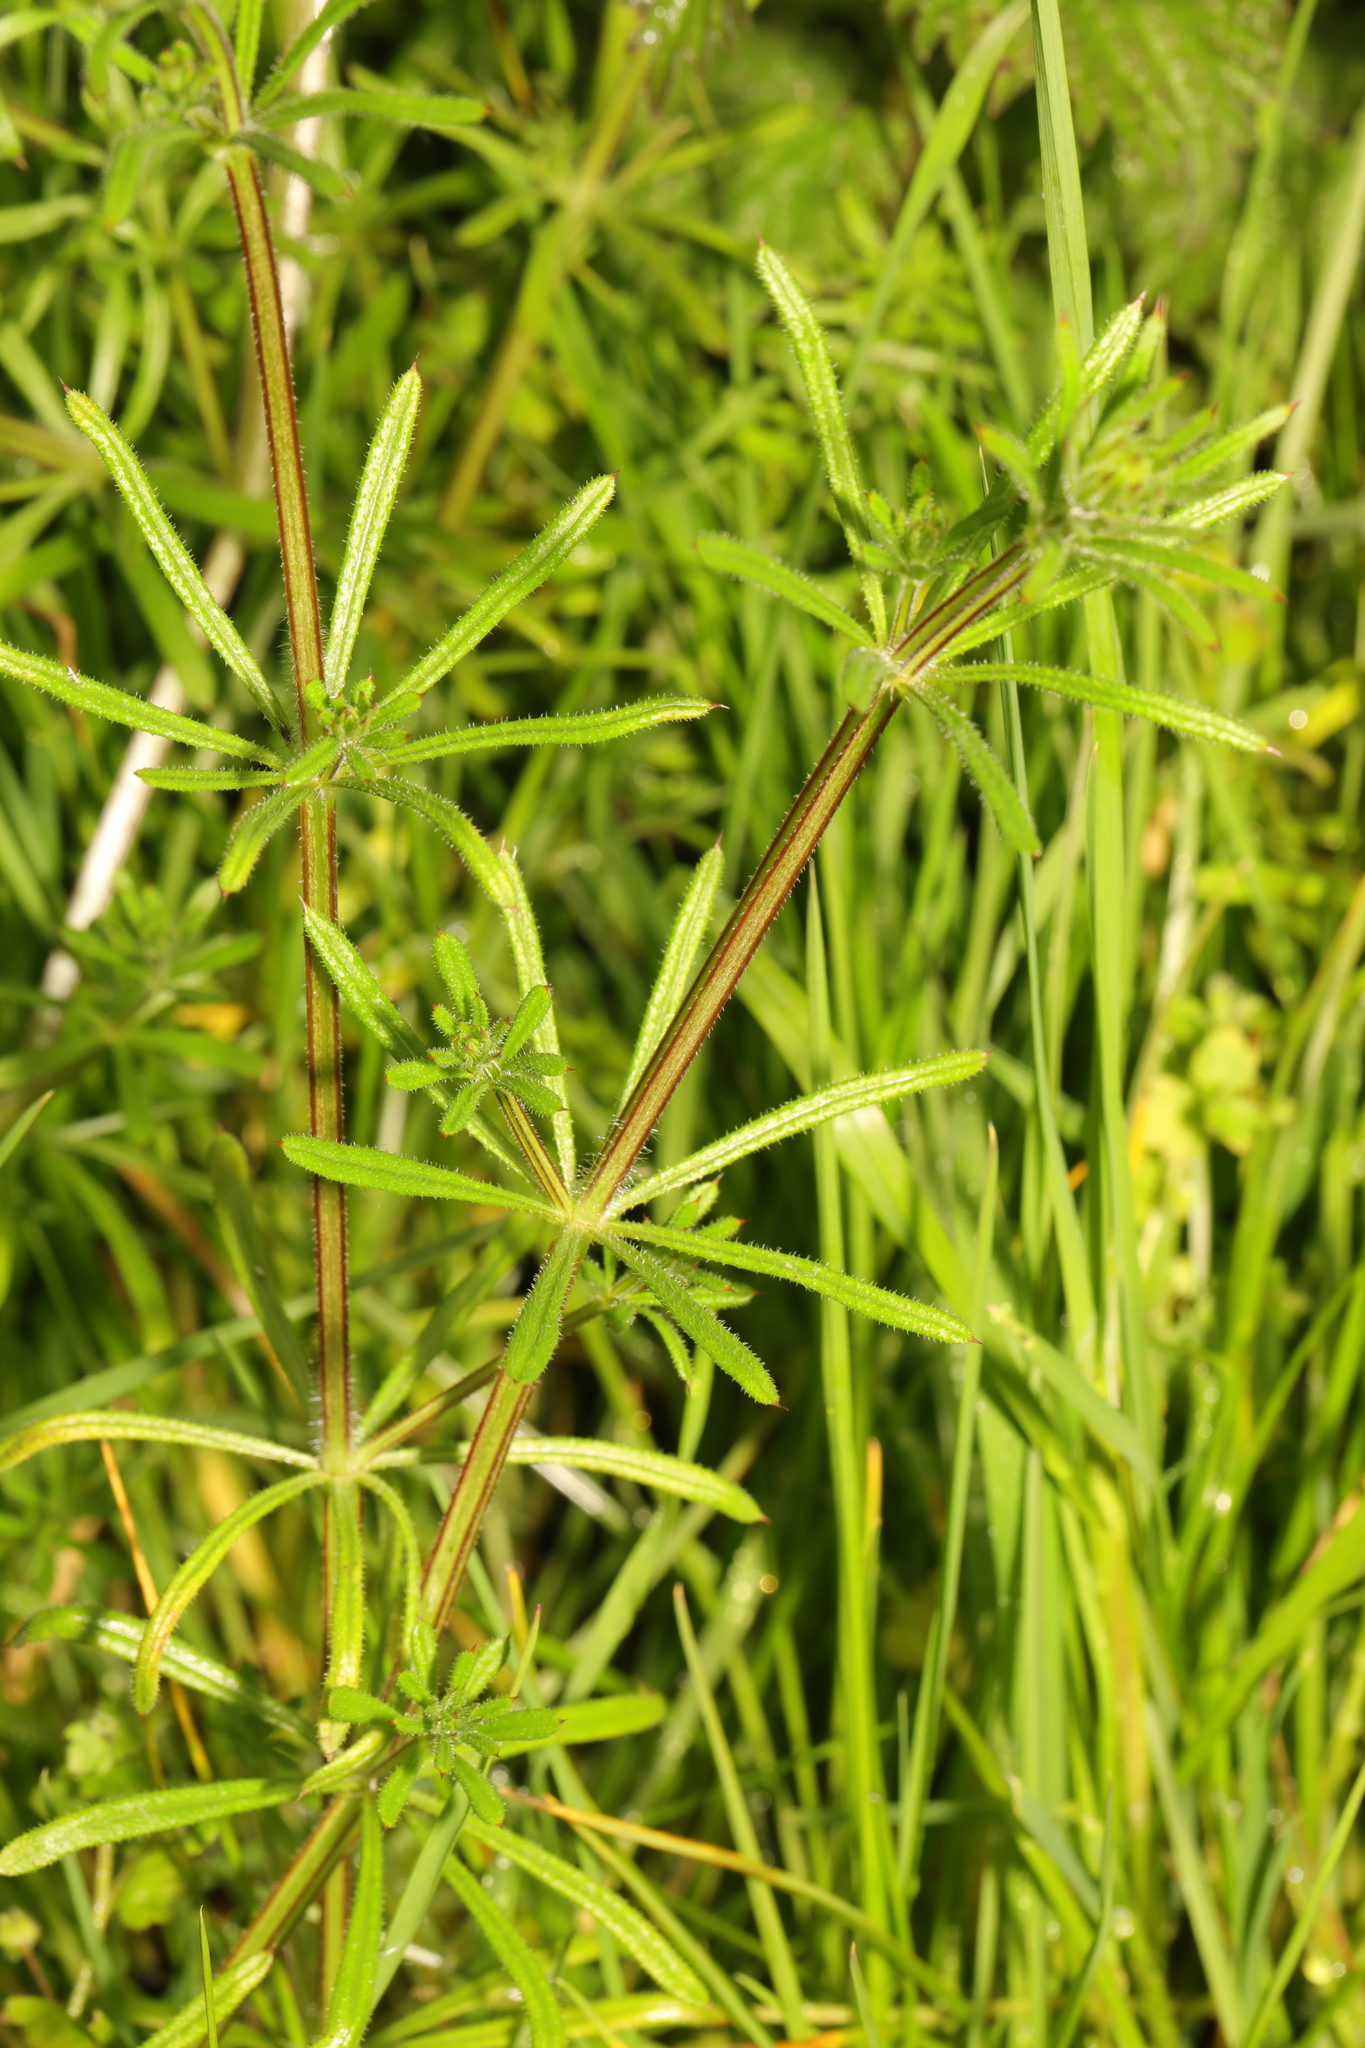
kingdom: Plantae
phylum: Tracheophyta
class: Magnoliopsida
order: Gentianales
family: Rubiaceae
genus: Galium
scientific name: Galium aparine
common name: Cleavers
